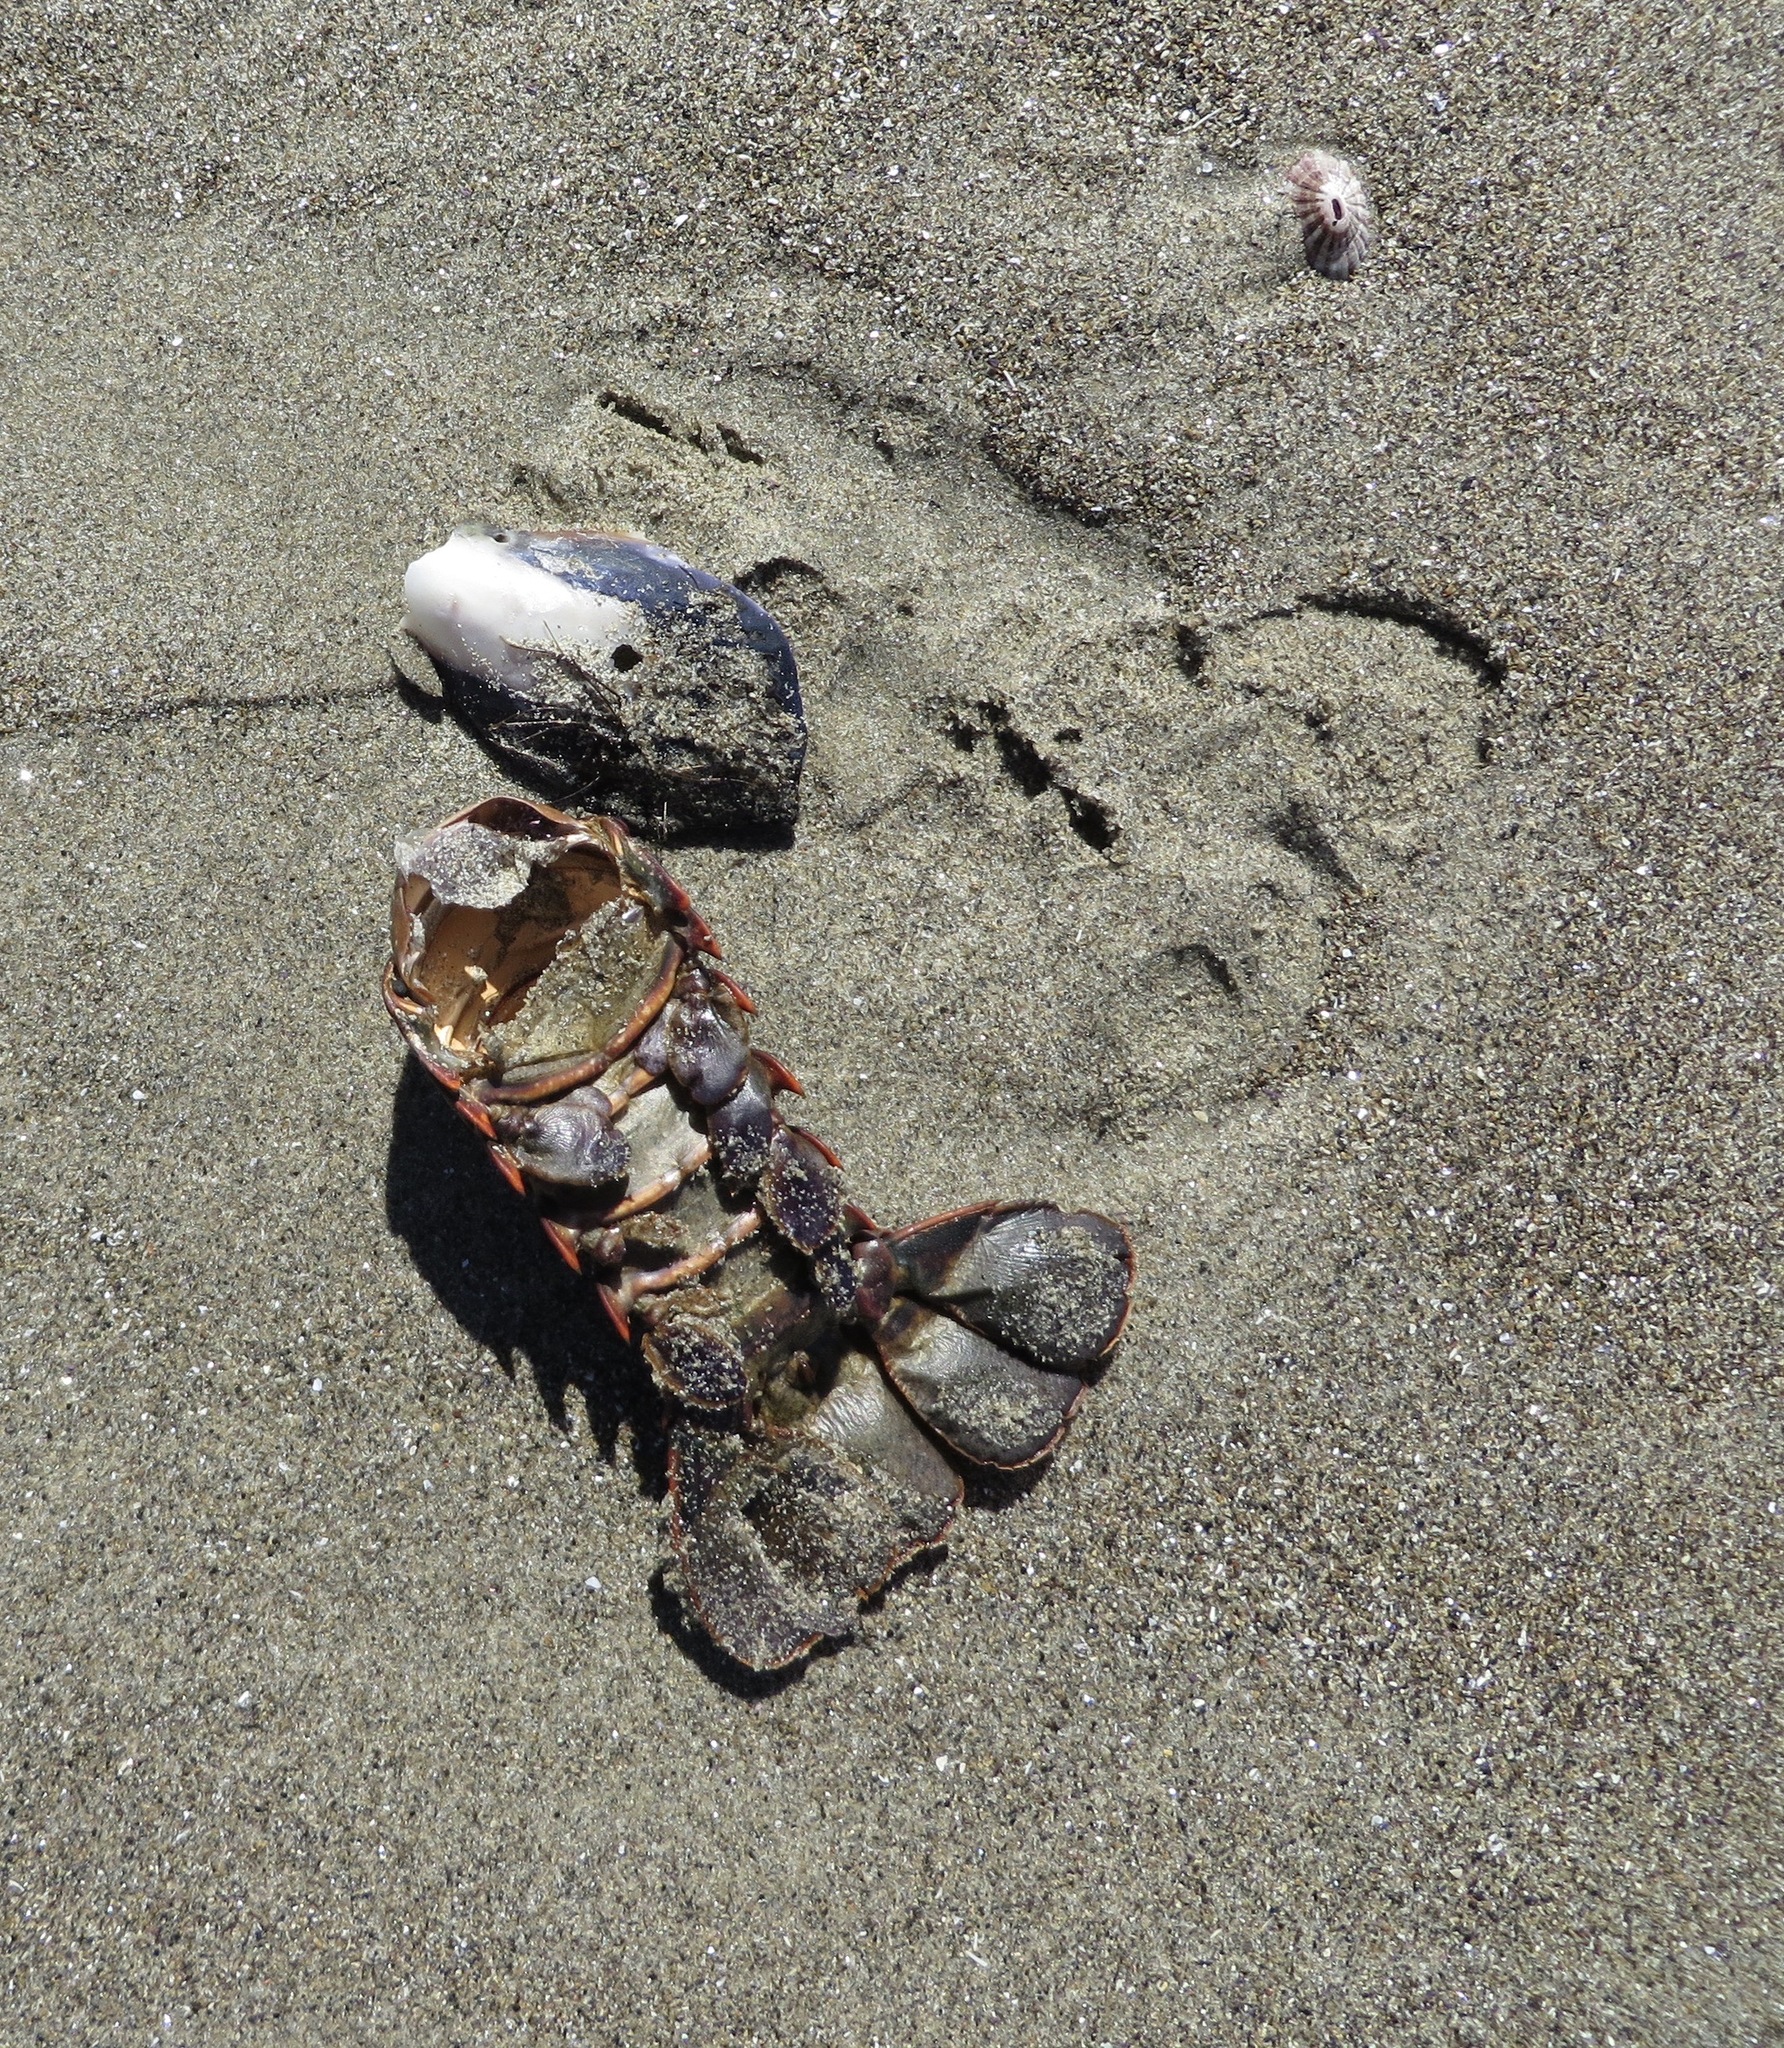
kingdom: Animalia
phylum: Arthropoda
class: Malacostraca
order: Decapoda
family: Palinuridae
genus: Panulirus
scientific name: Panulirus interruptus
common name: California spiny lobster
